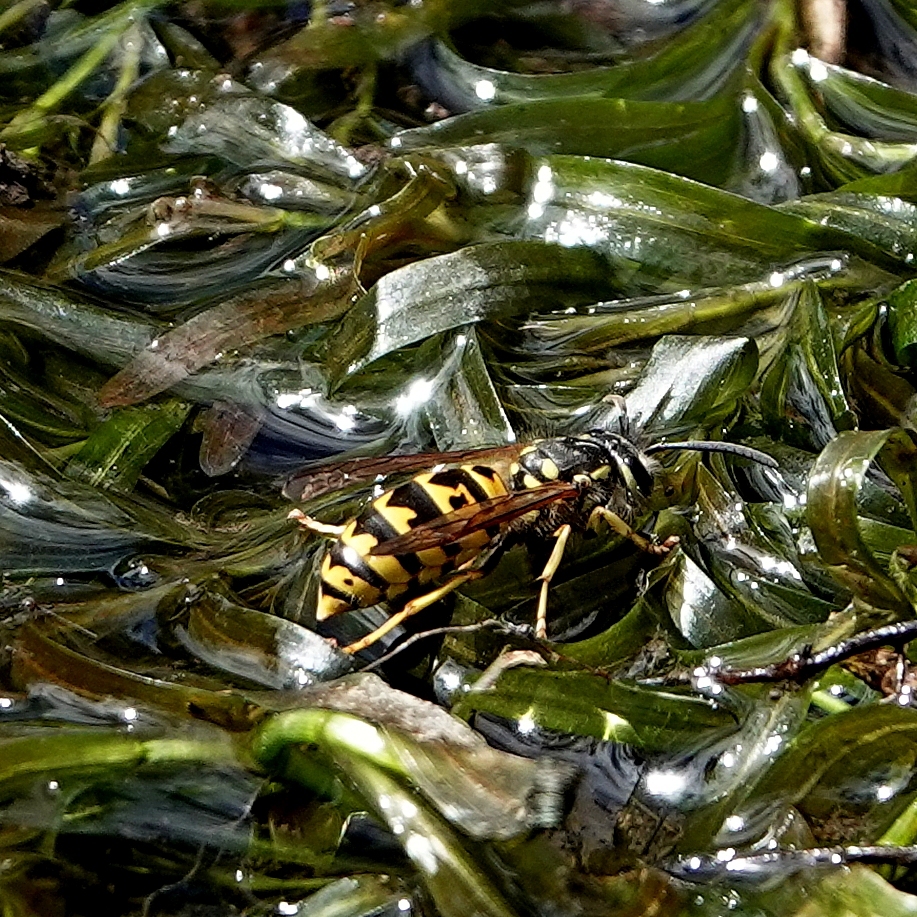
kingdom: Animalia
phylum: Arthropoda
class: Insecta
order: Hymenoptera
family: Vespidae
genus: Vespula
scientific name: Vespula germanica
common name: German wasp
